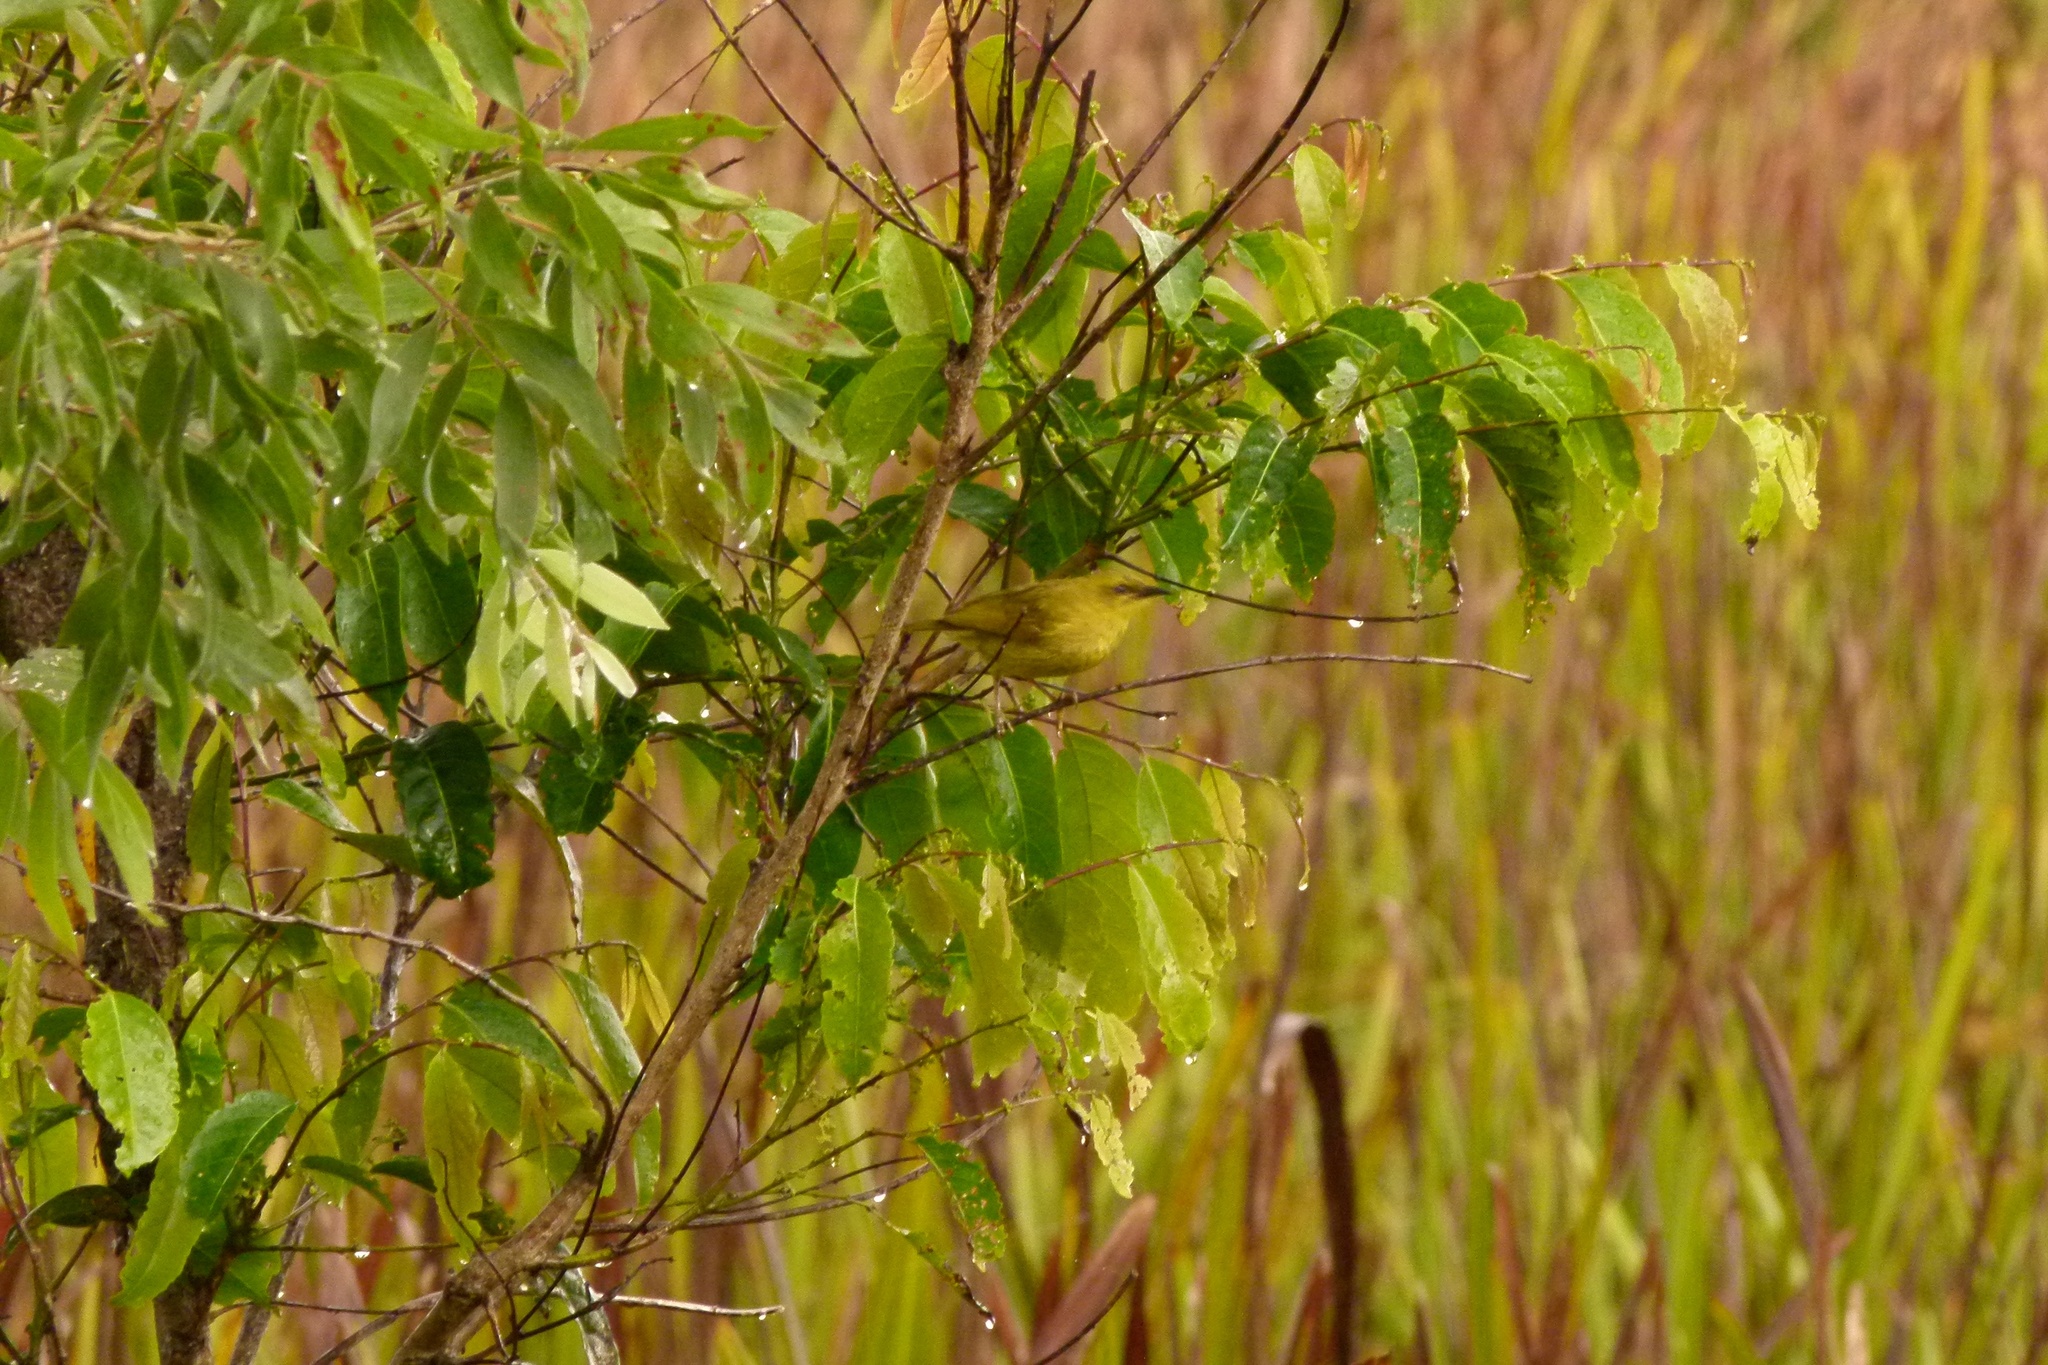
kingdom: Animalia
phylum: Chordata
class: Aves
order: Passeriformes
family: Meliphagidae
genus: Stomiopera
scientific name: Stomiopera flava
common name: Yellow honeyeater
